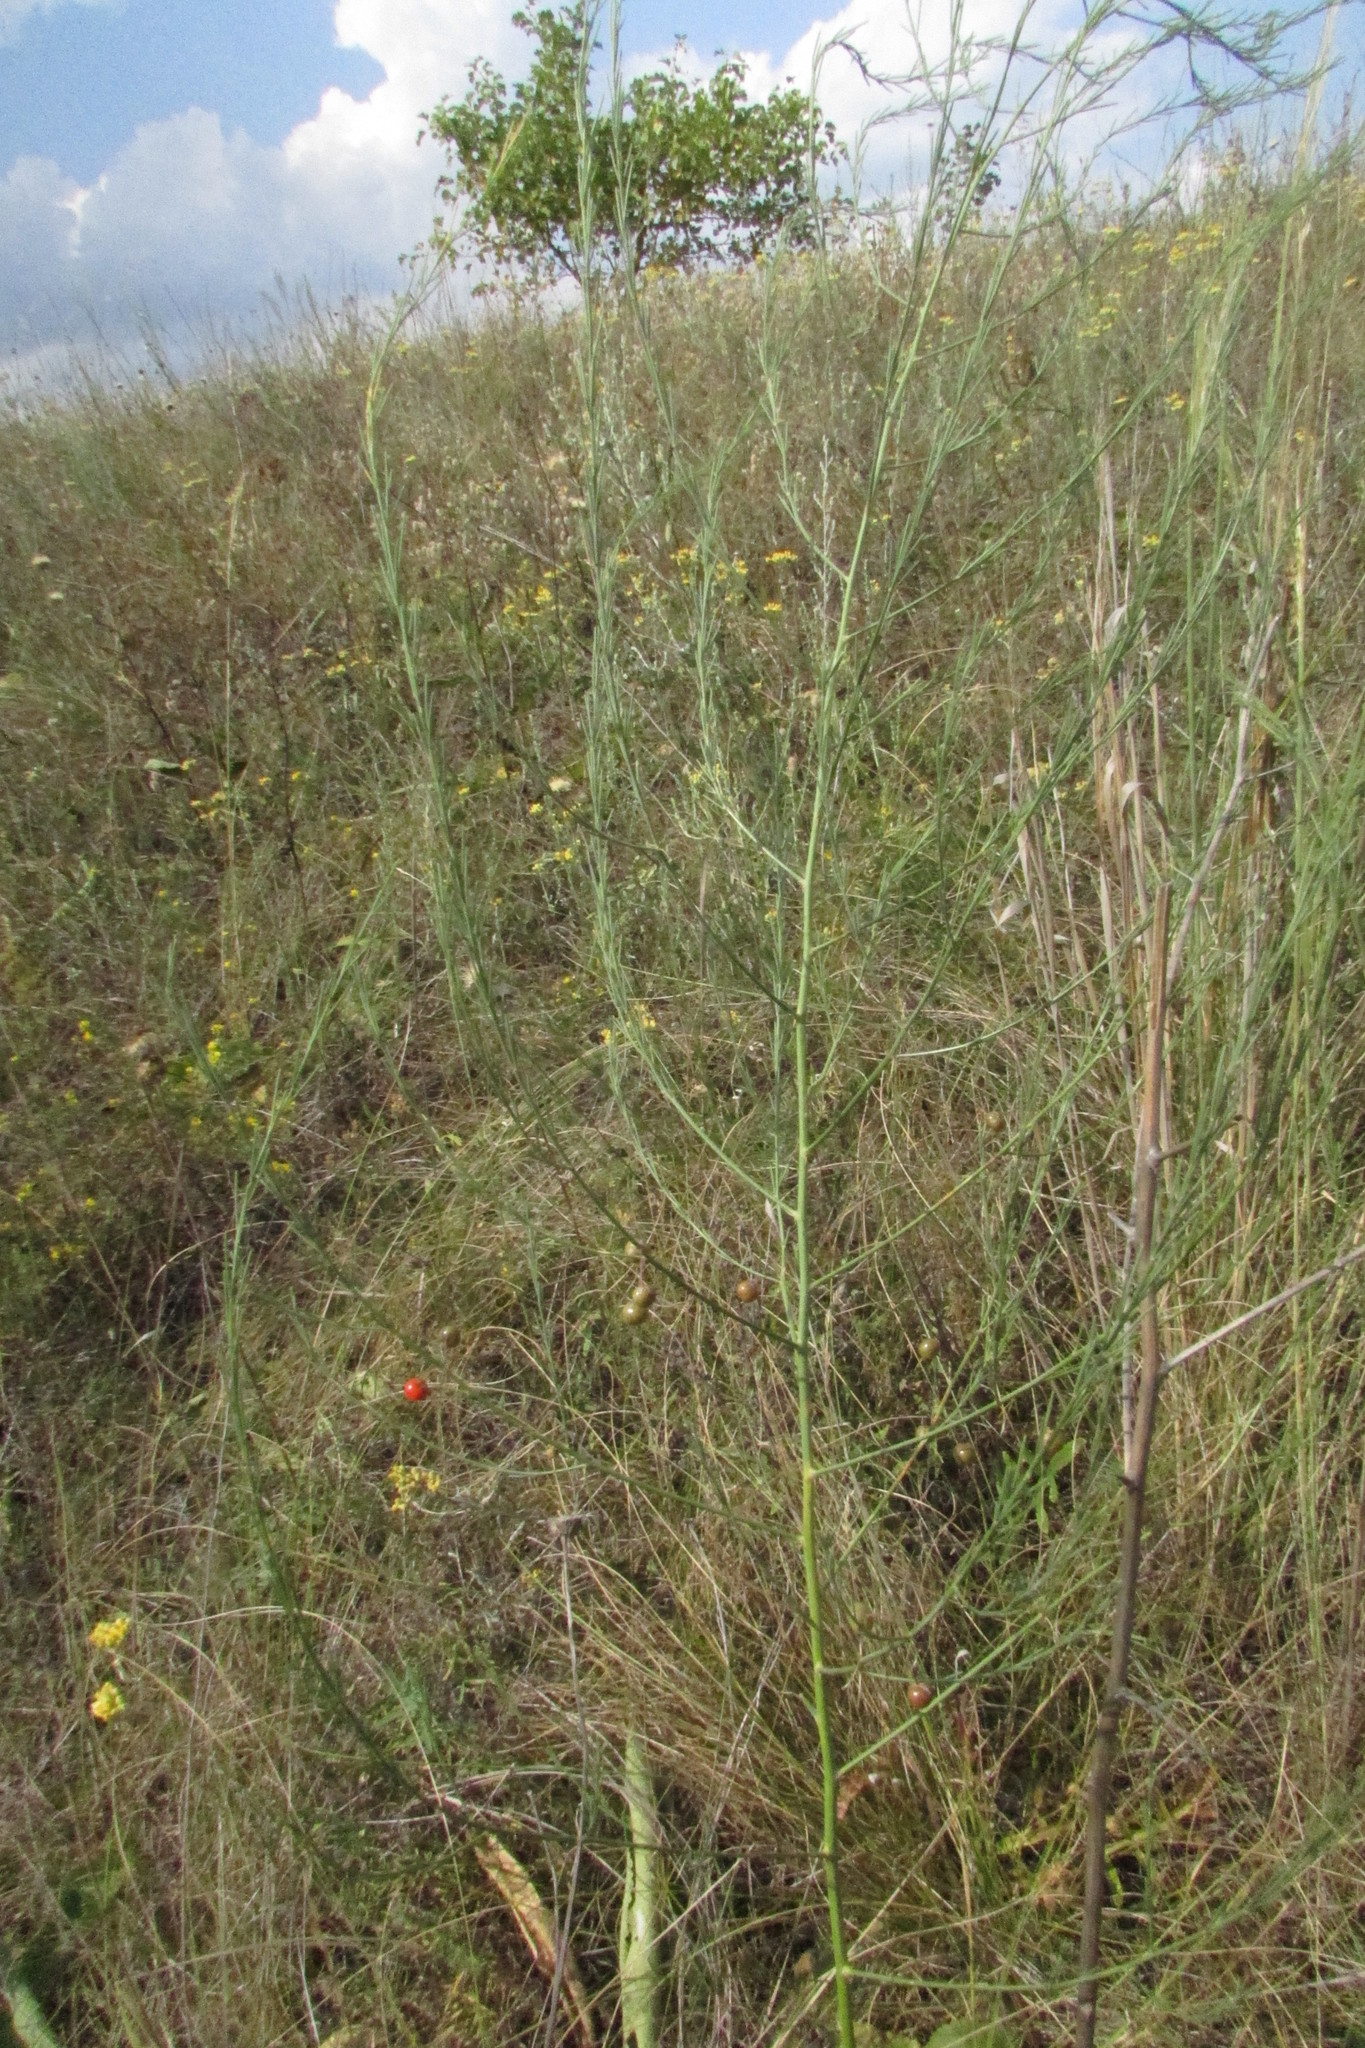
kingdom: Plantae
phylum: Tracheophyta
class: Liliopsida
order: Asparagales
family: Asparagaceae
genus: Asparagus
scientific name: Asparagus officinalis
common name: Garden asparagus
